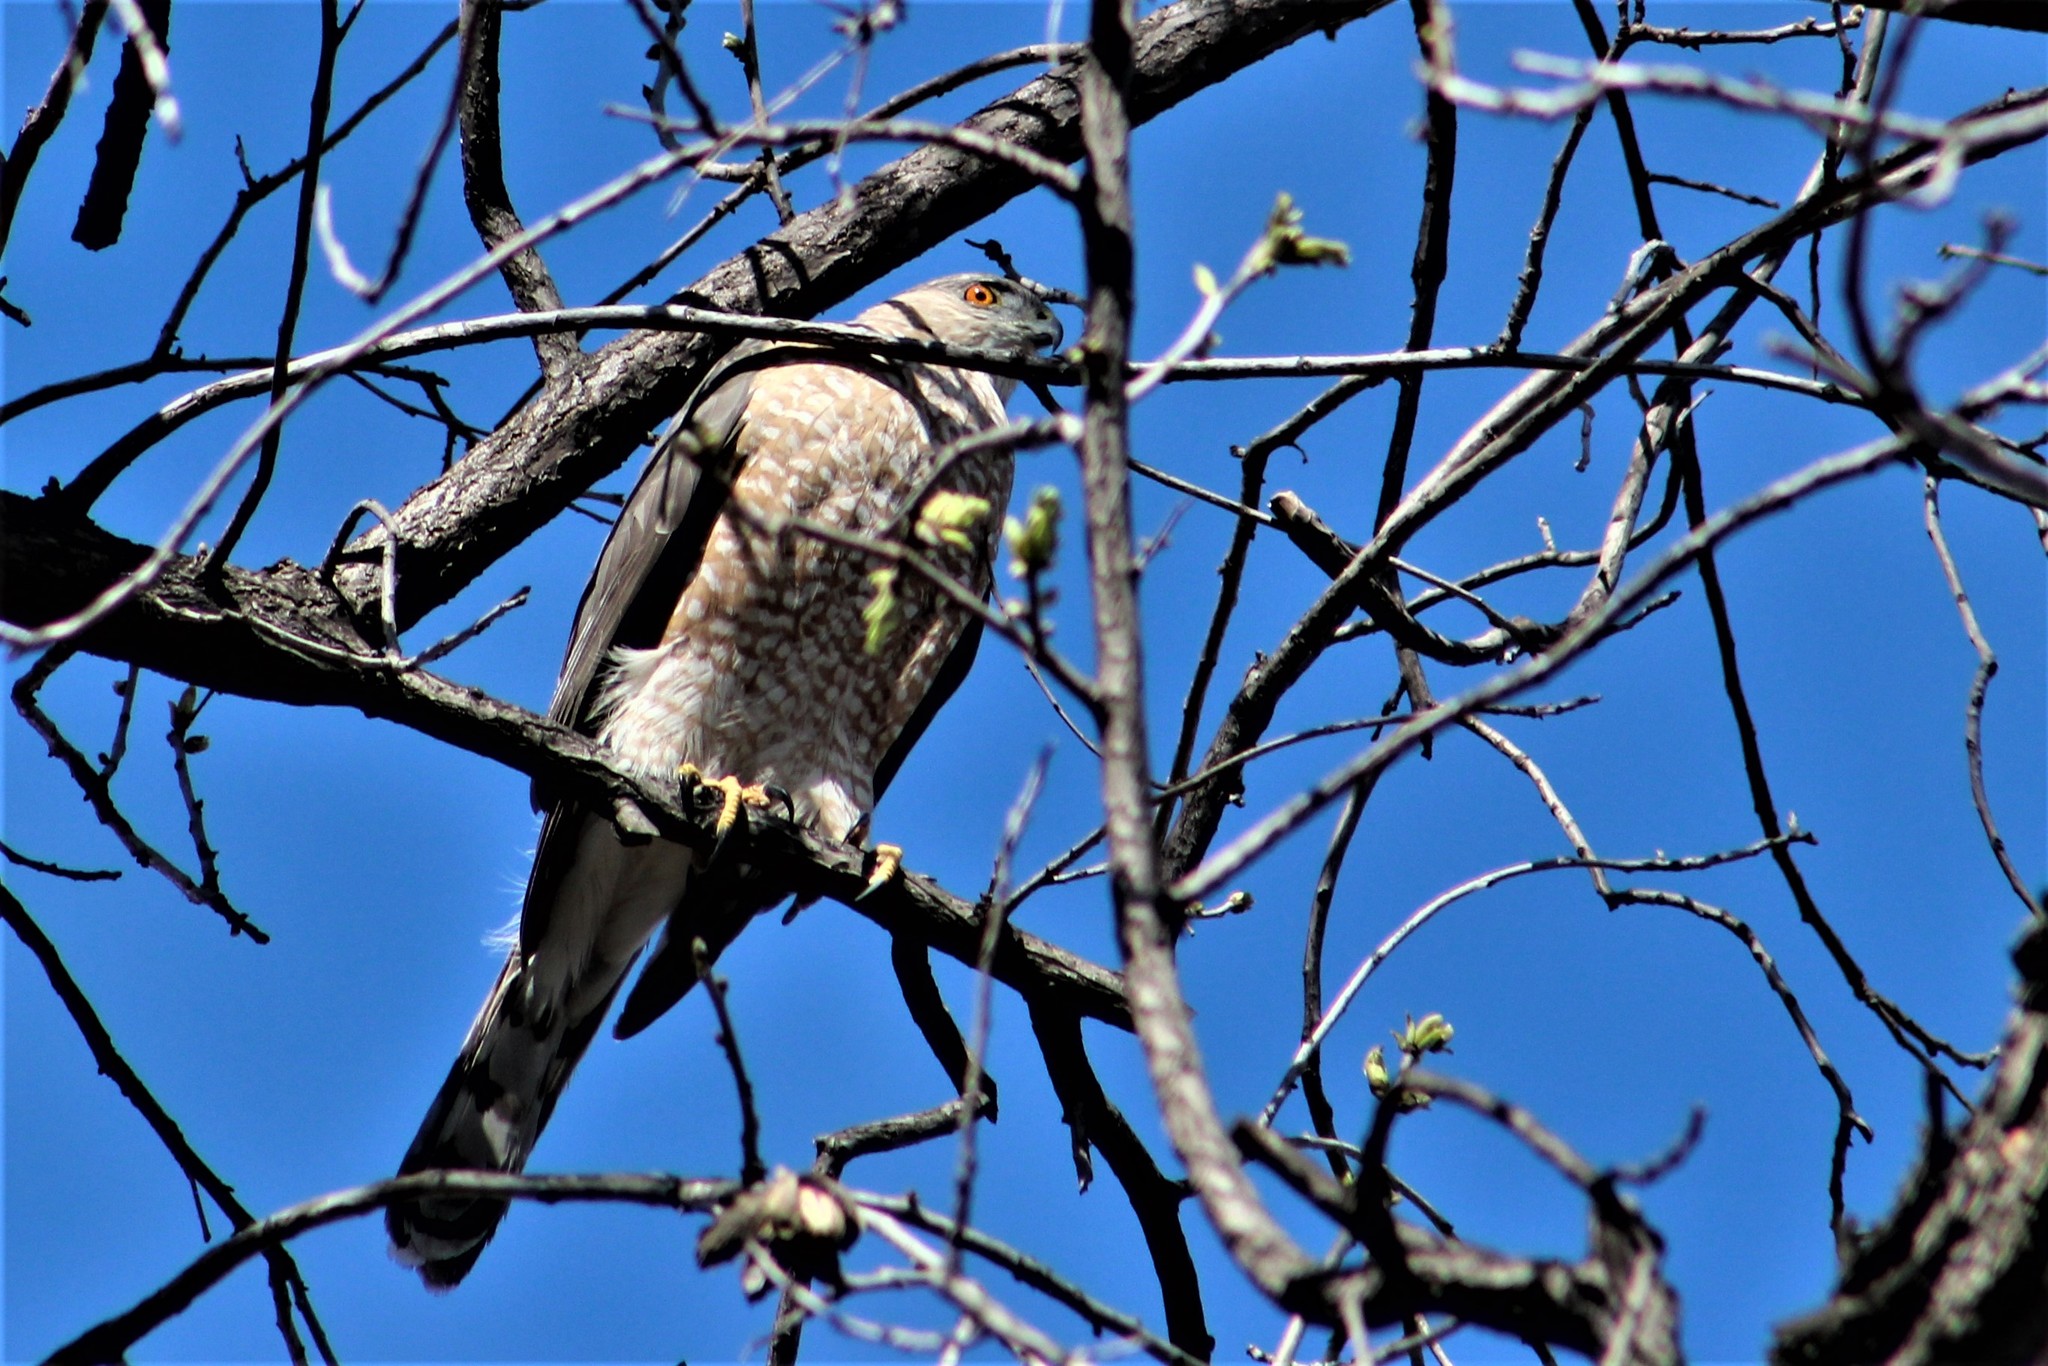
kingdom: Animalia
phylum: Chordata
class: Aves
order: Accipitriformes
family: Accipitridae
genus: Accipiter
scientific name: Accipiter cooperii
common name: Cooper's hawk
